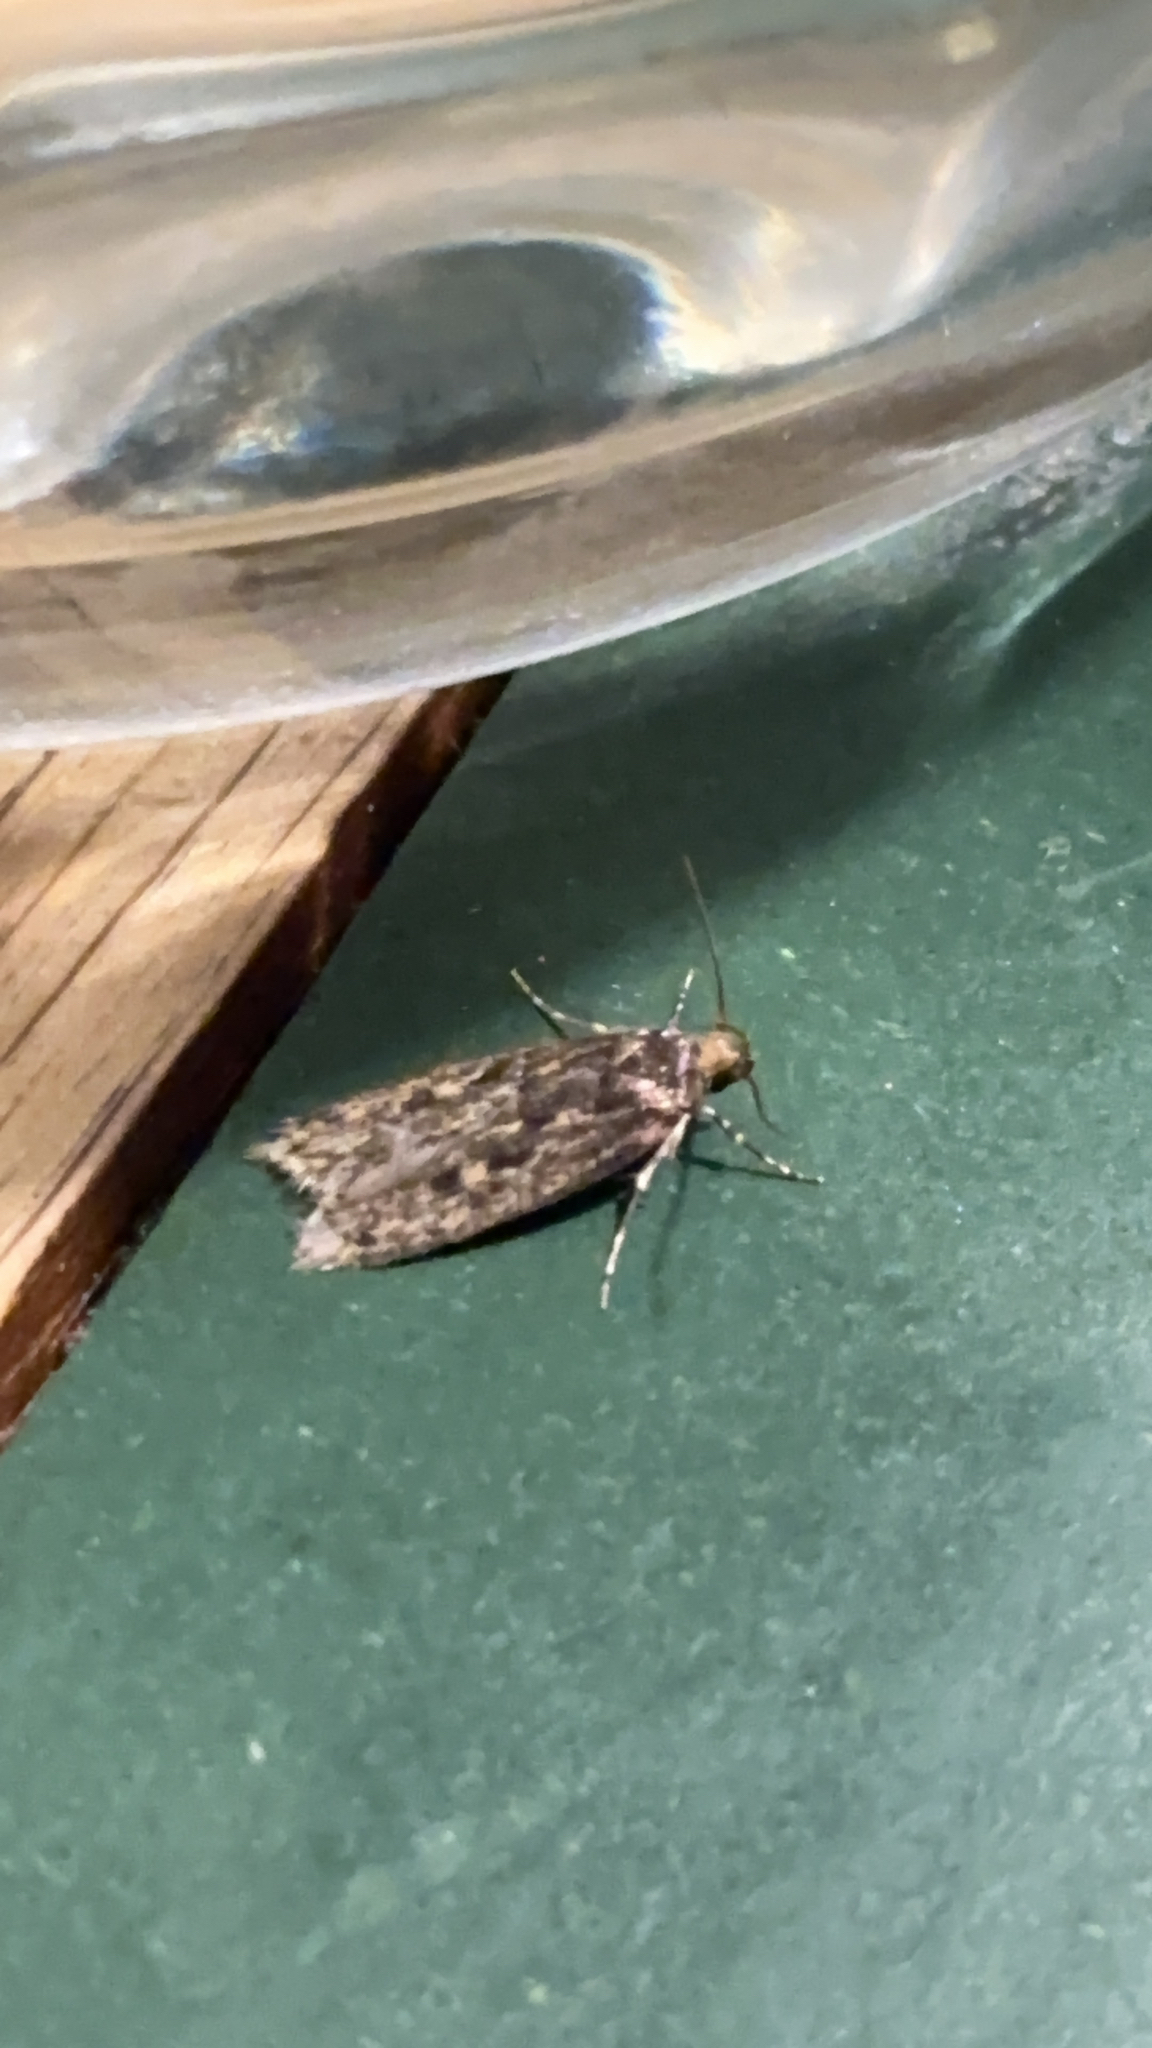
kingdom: Animalia
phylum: Arthropoda
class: Insecta
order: Lepidoptera
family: Oecophoridae
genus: Hofmannophila
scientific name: Hofmannophila pseudospretella
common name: Brown house moth
